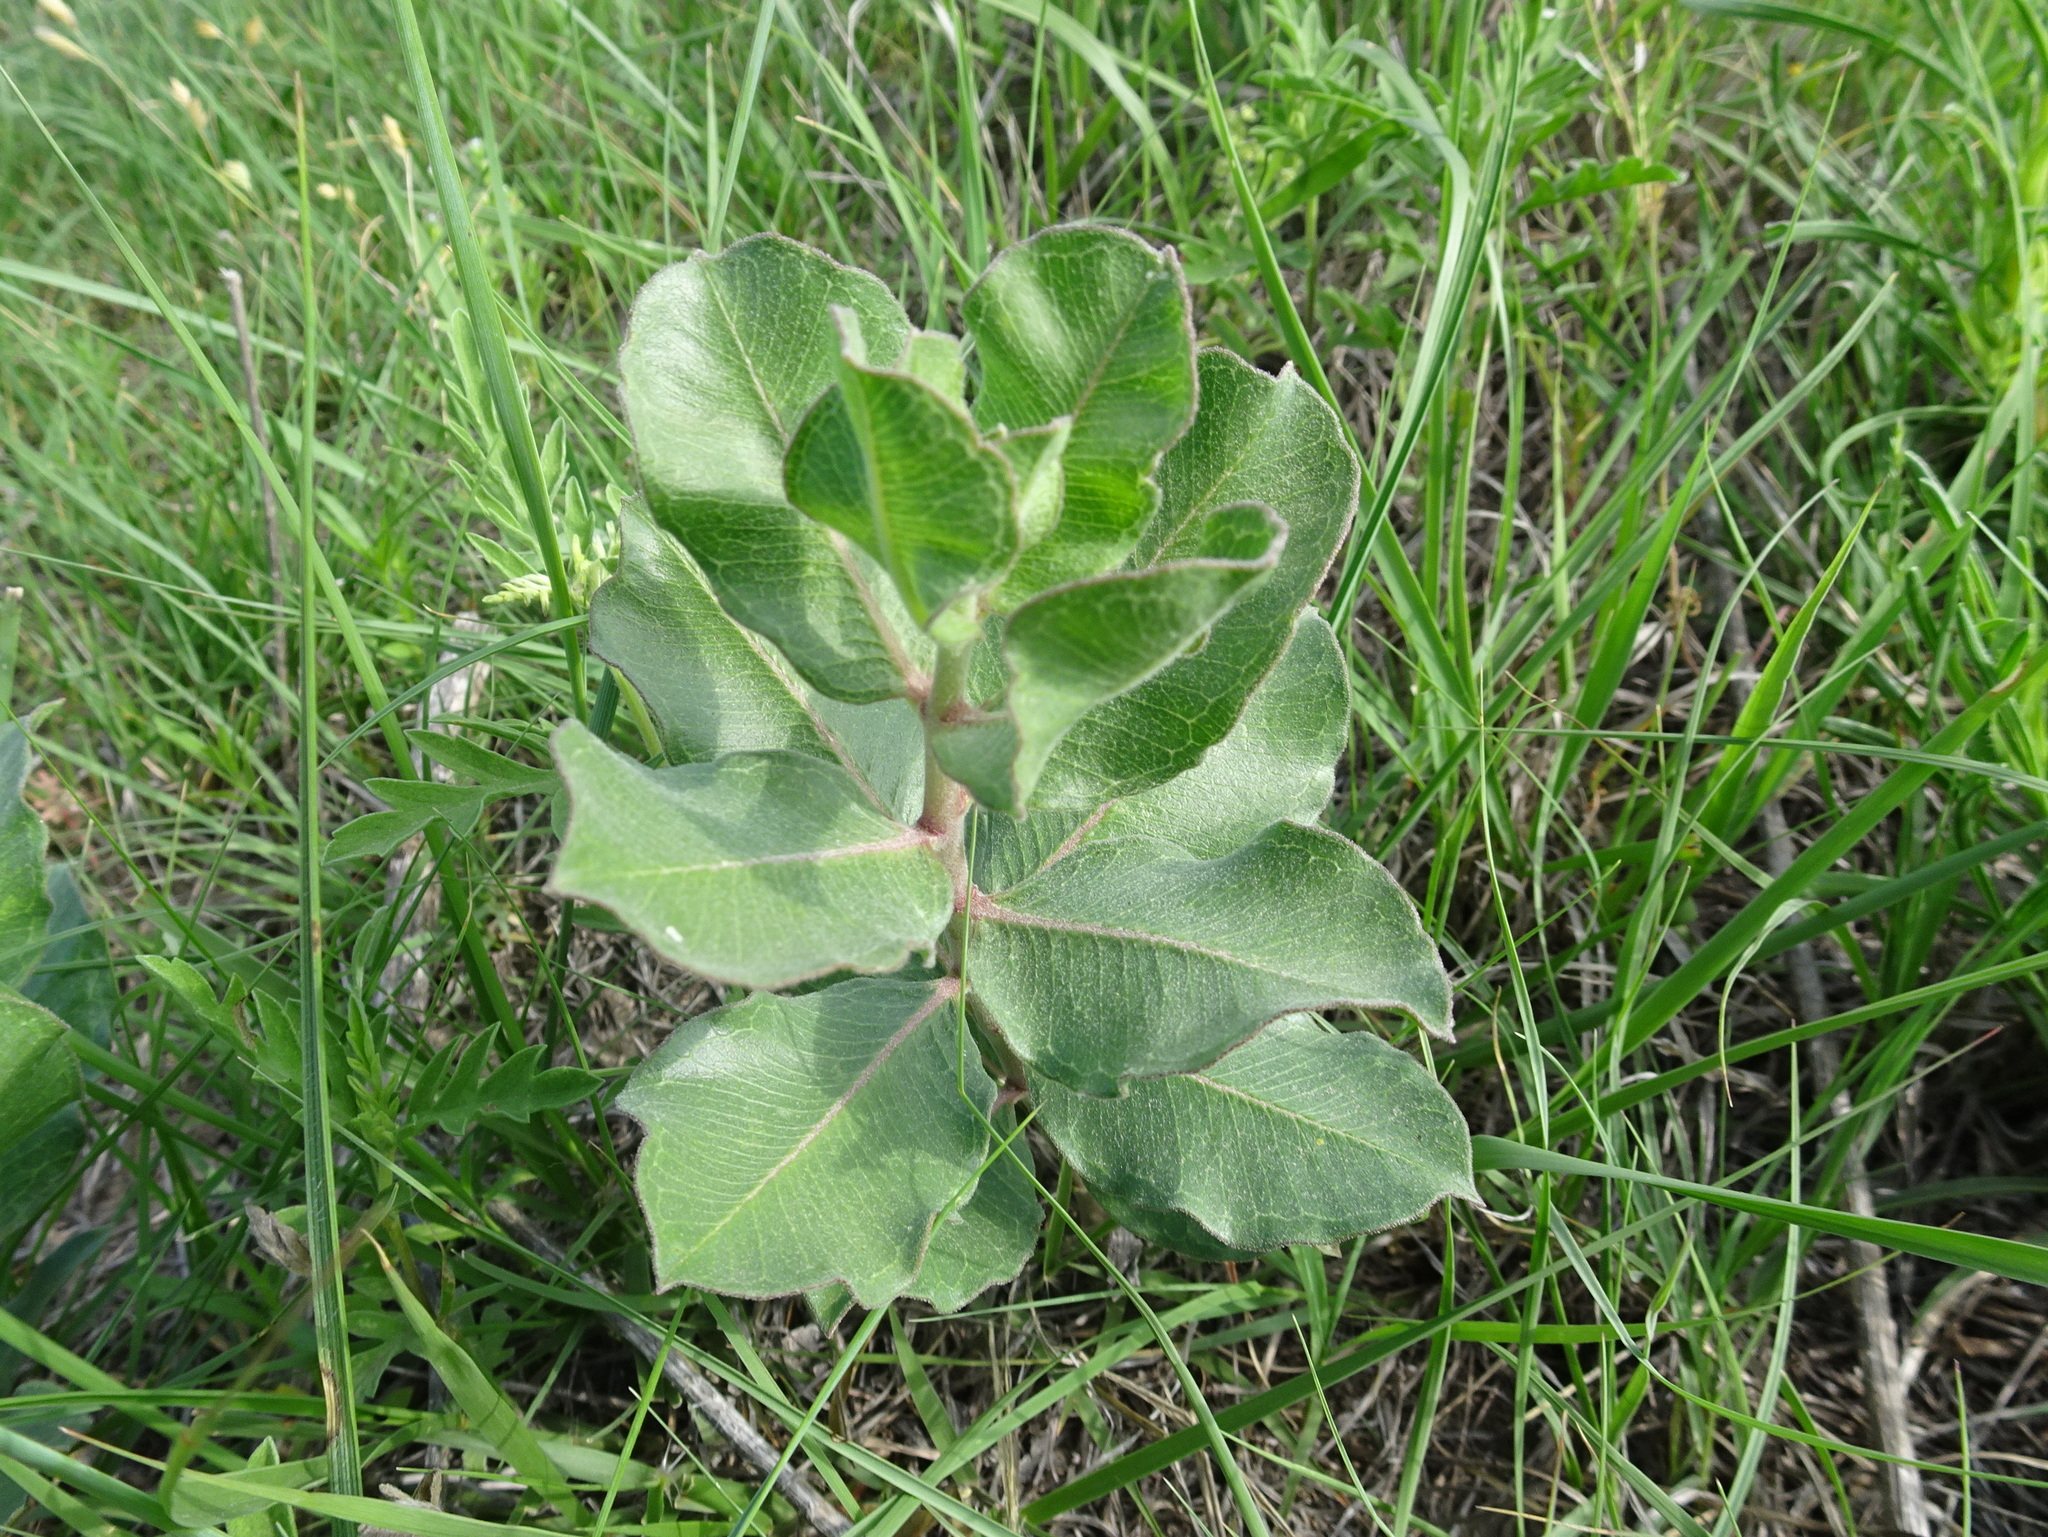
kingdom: Plantae
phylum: Tracheophyta
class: Magnoliopsida
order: Gentianales
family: Apocynaceae
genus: Asclepias
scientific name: Asclepias viridiflora
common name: Green comet milkweed
